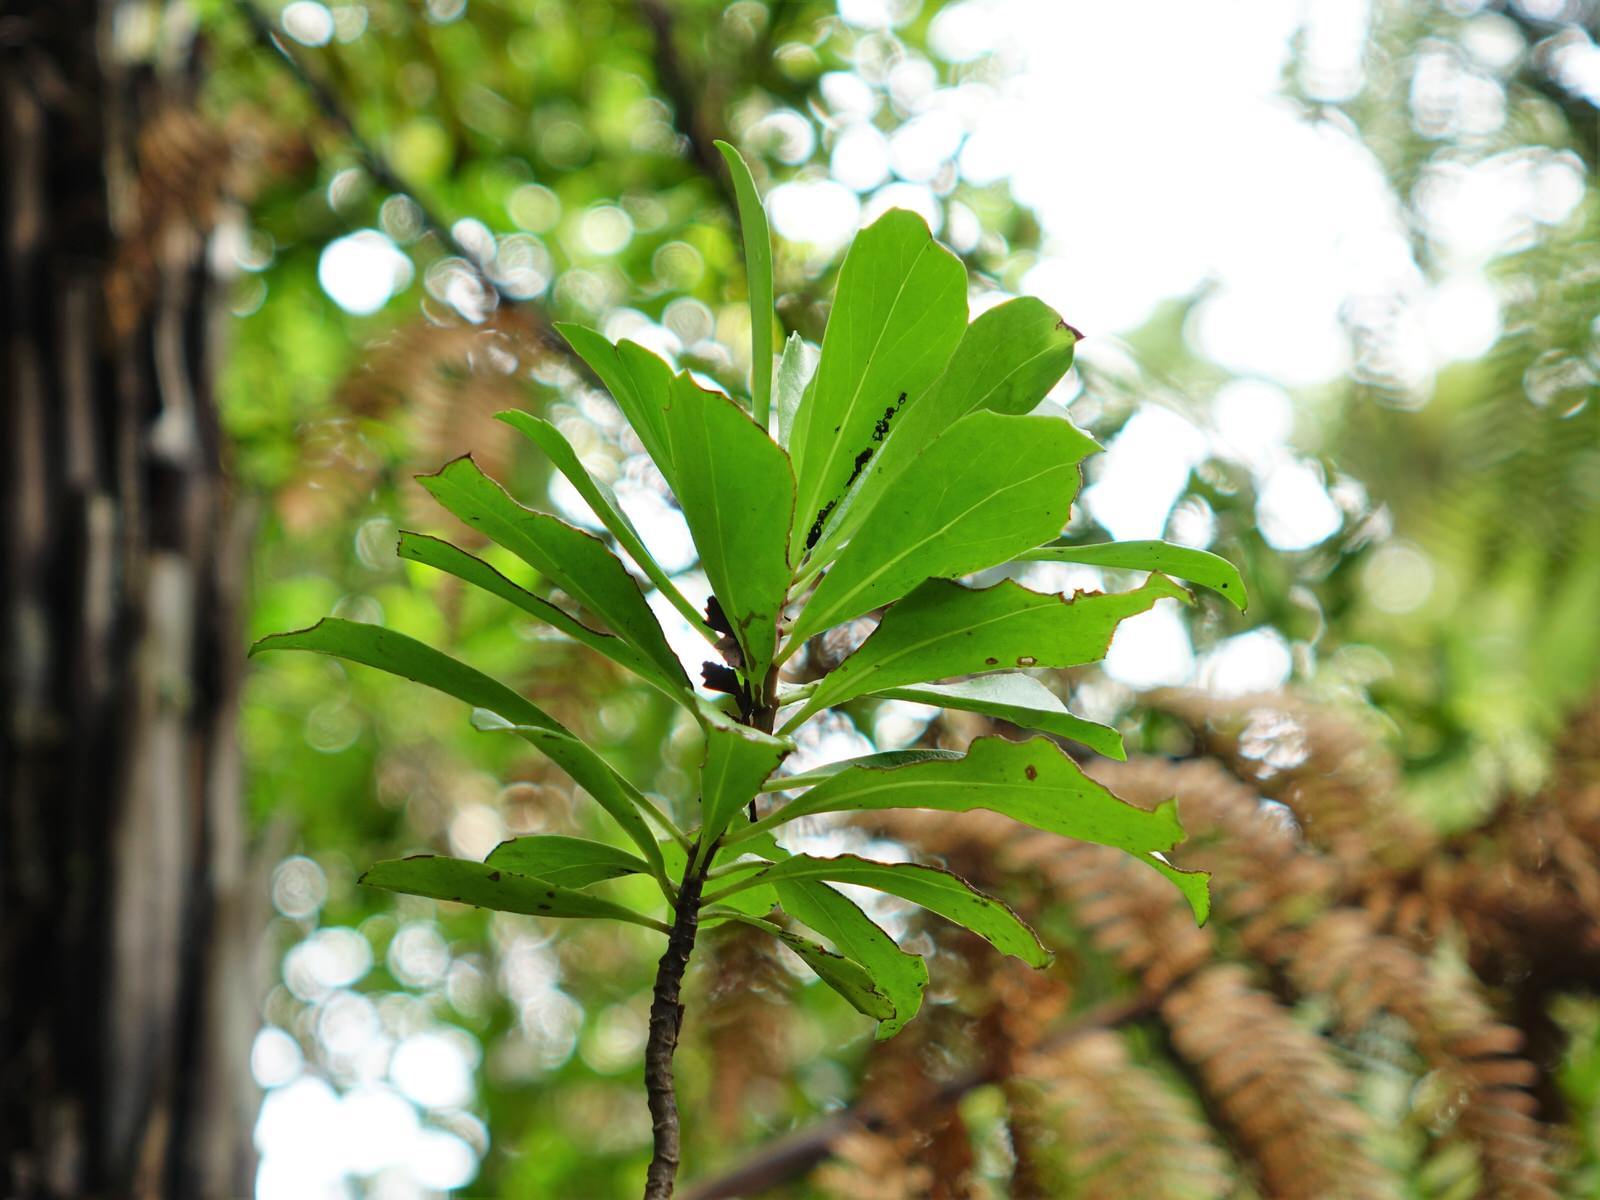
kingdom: Plantae
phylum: Tracheophyta
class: Magnoliopsida
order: Asterales
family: Asteraceae
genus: Brachyglottis
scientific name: Brachyglottis kirkii
